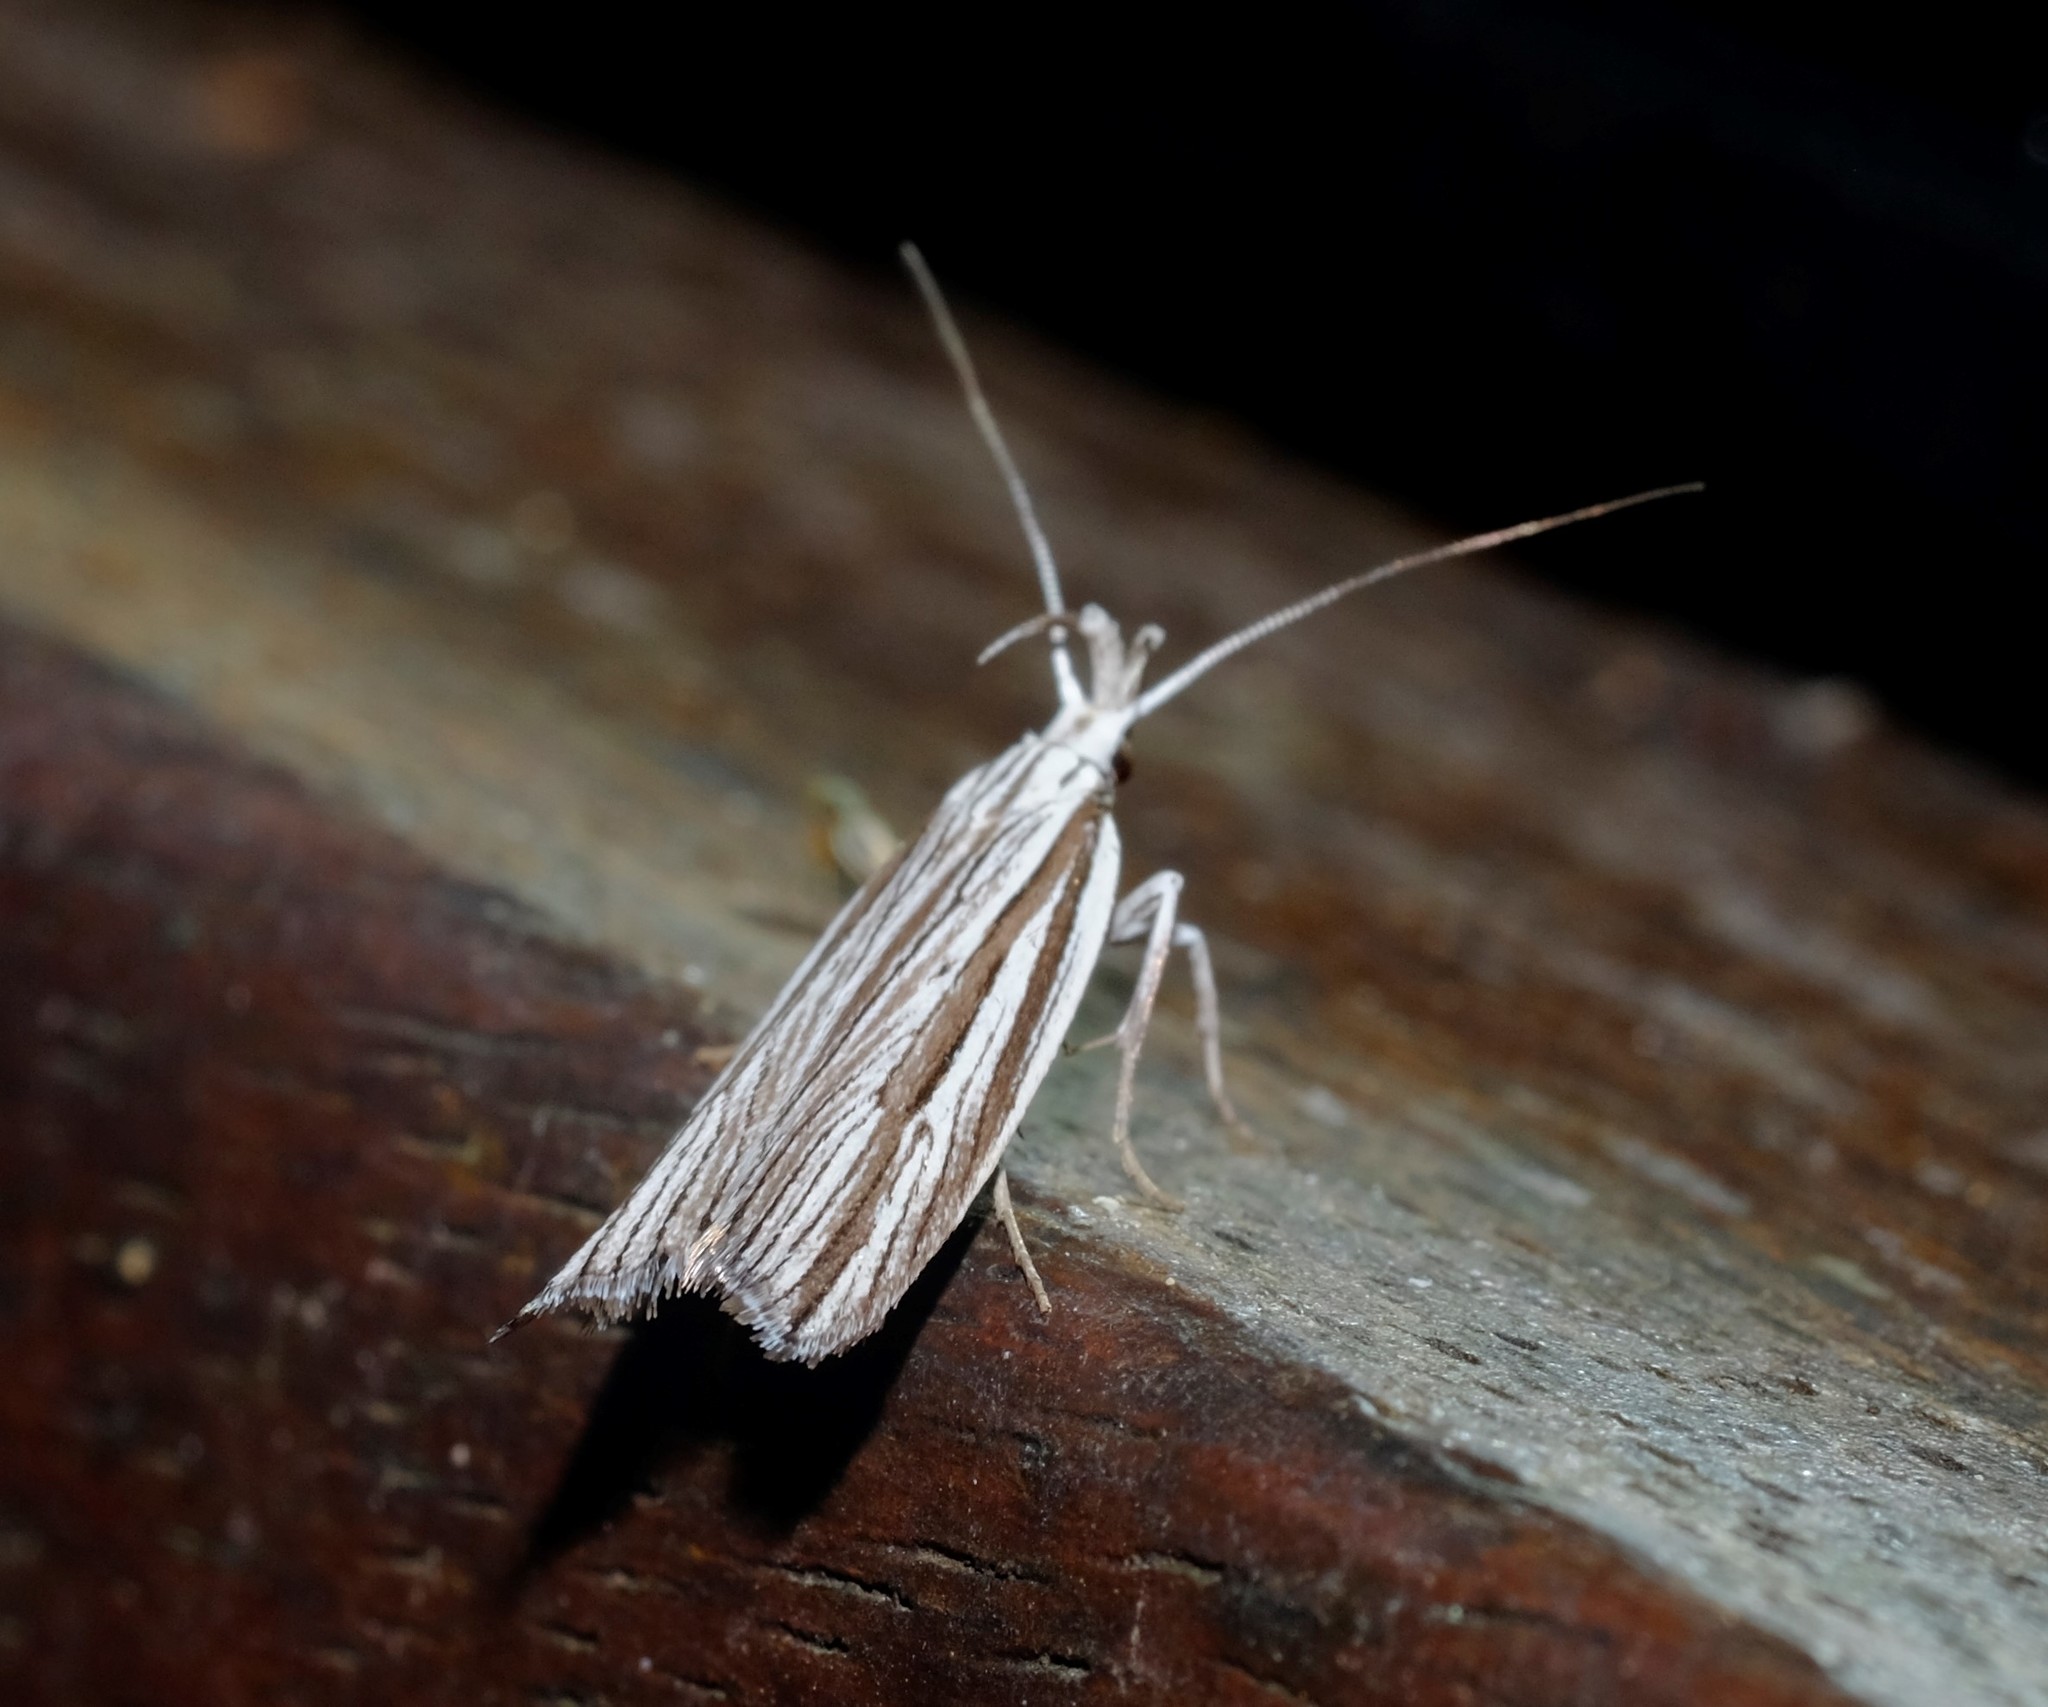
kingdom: Animalia
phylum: Arthropoda
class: Insecta
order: Lepidoptera
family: Xyloryctidae
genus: Bida
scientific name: Bida radiosella
